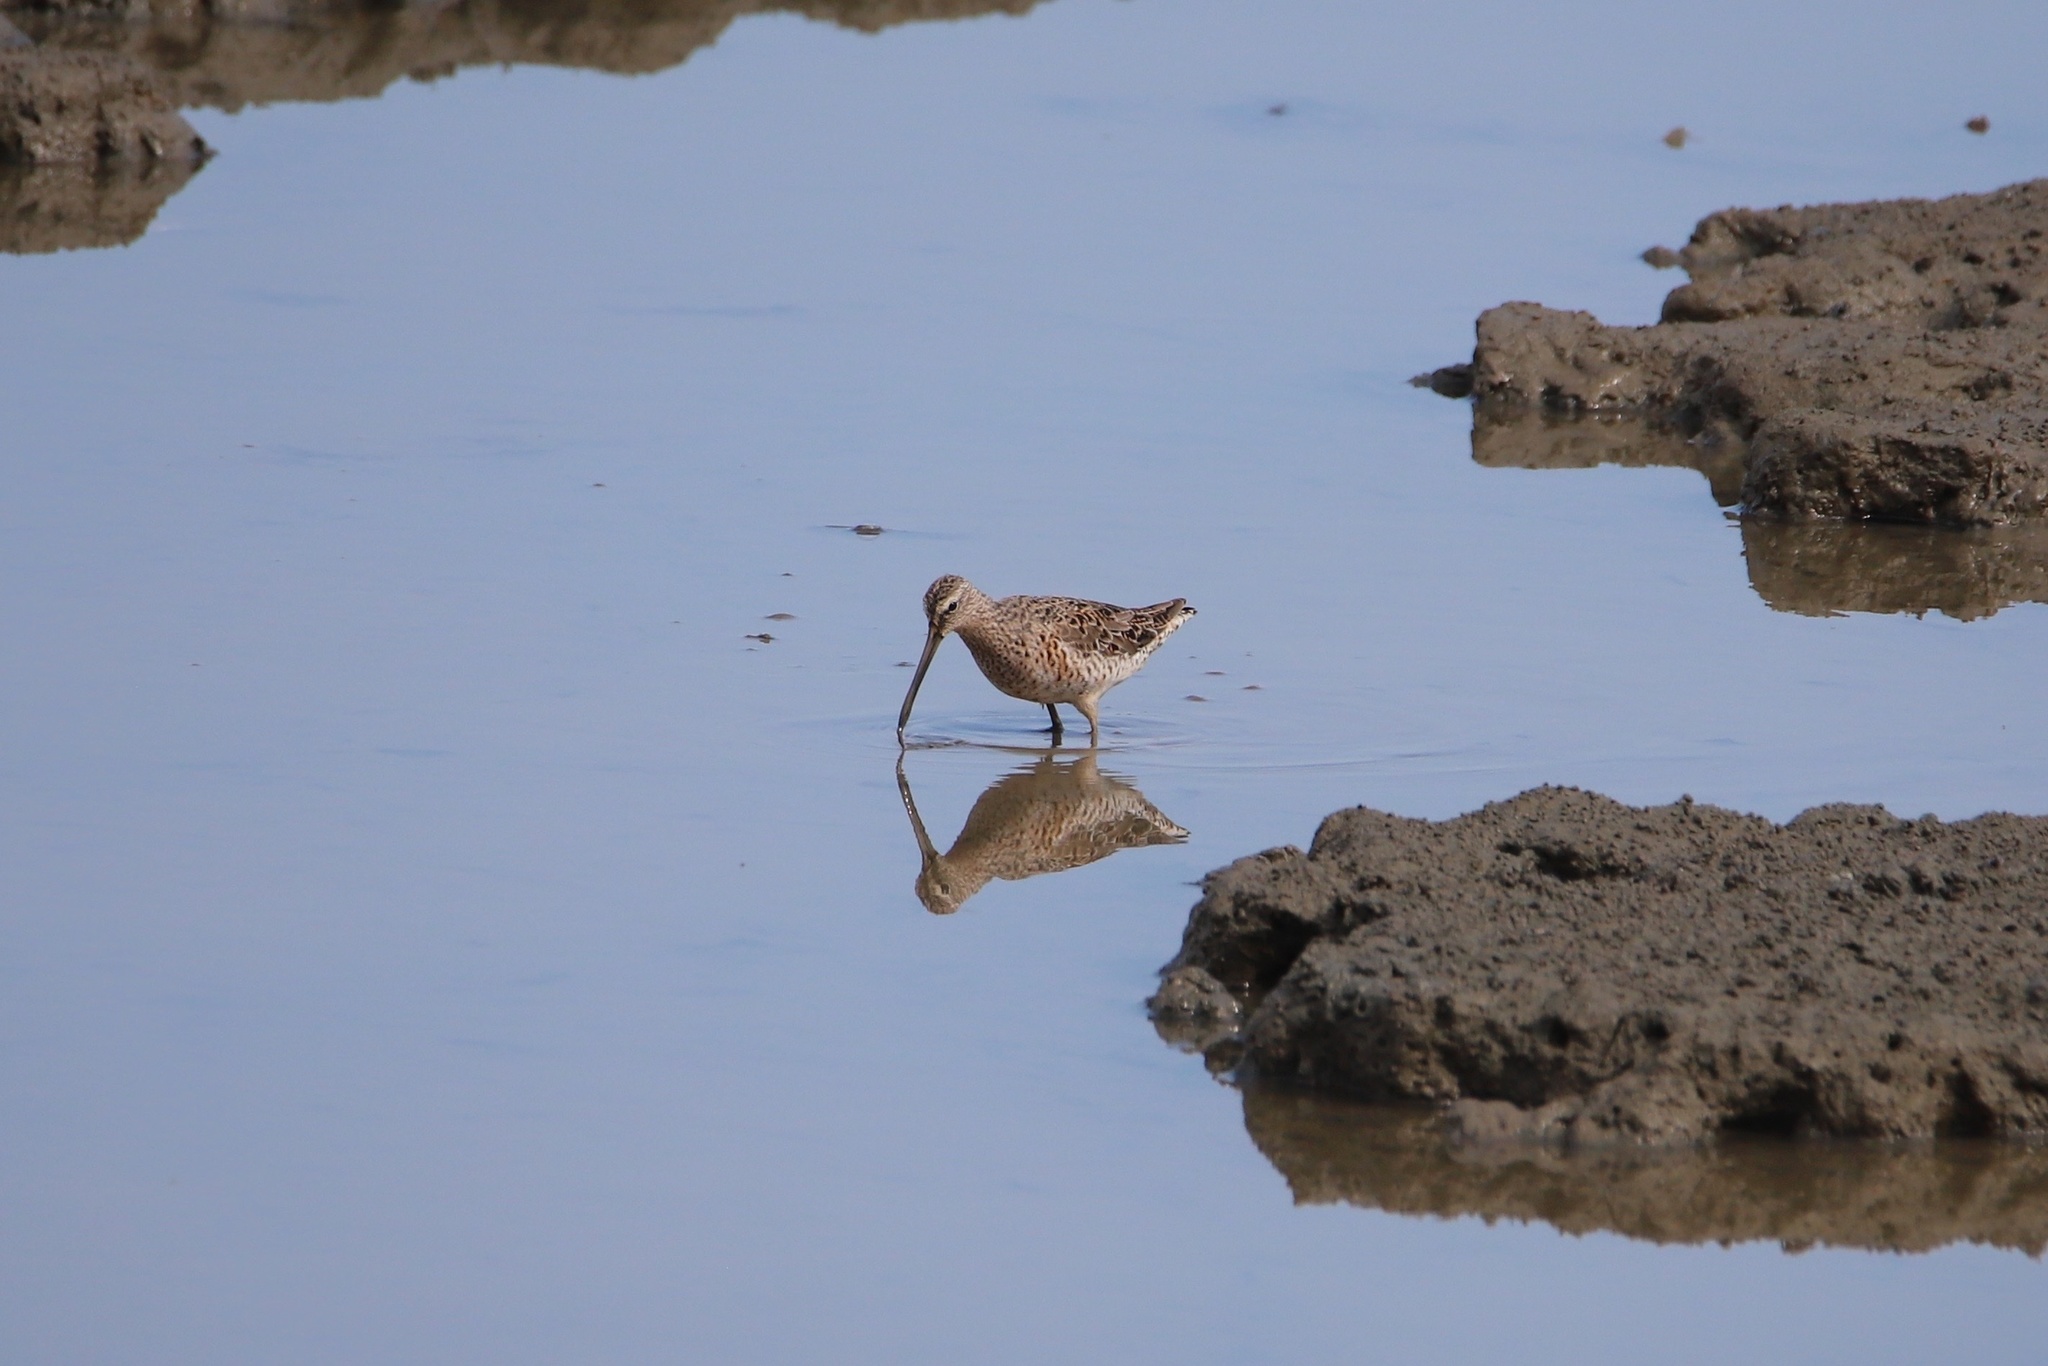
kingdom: Animalia
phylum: Chordata
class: Aves
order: Charadriiformes
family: Scolopacidae
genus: Limnodromus
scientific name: Limnodromus griseus
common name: Short-billed dowitcher
